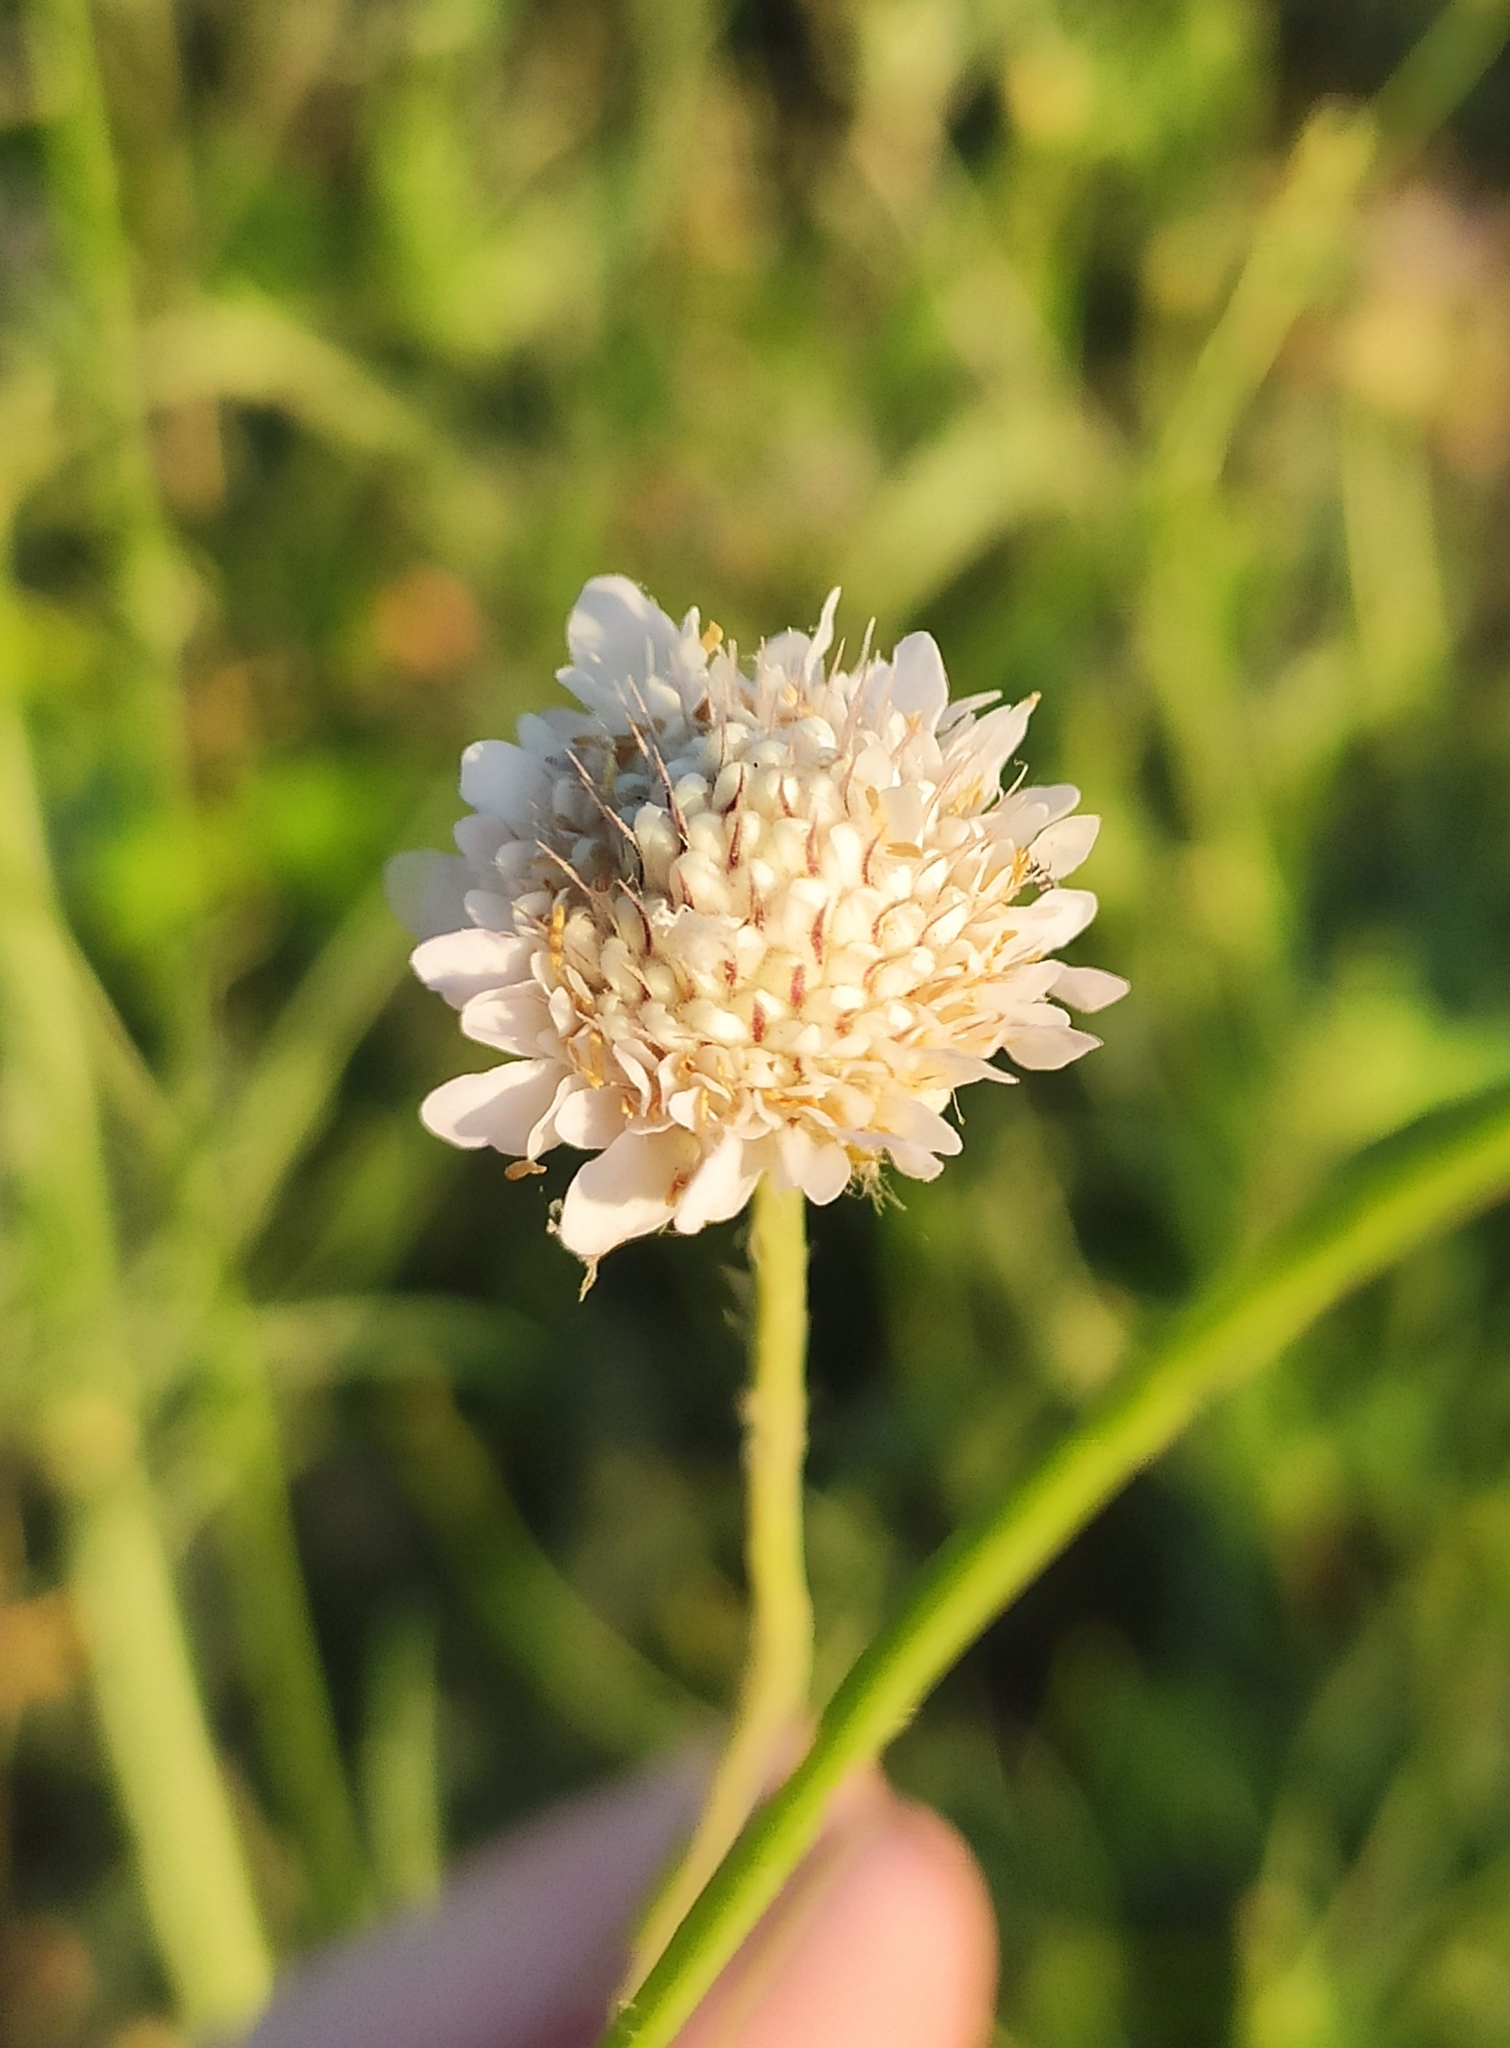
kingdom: Plantae
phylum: Tracheophyta
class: Magnoliopsida
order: Dipsacales
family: Caprifoliaceae
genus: Cephalaria
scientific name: Cephalaria transsylvanica
